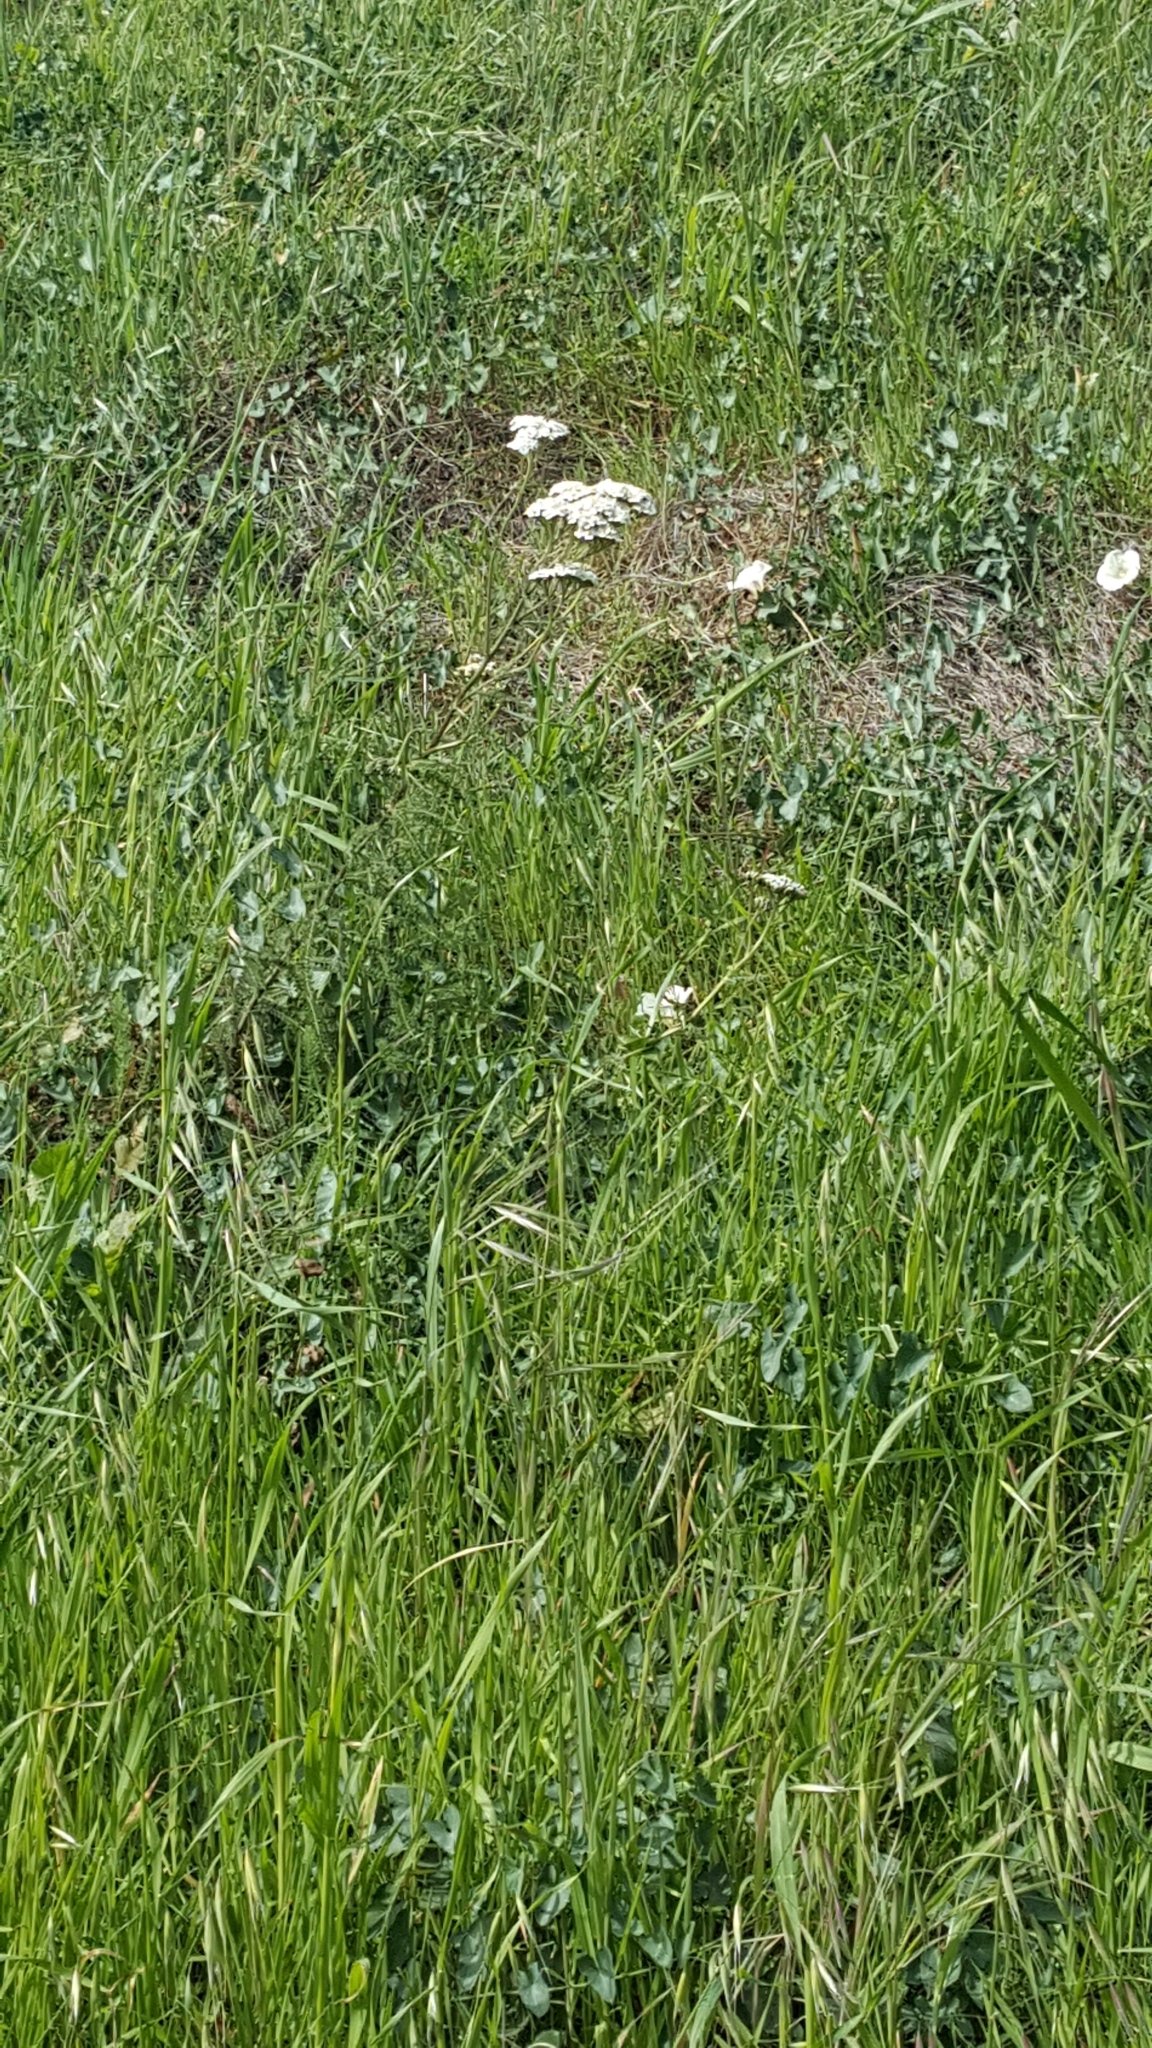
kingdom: Plantae
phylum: Tracheophyta
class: Magnoliopsida
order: Asterales
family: Asteraceae
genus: Achillea
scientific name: Achillea millefolium
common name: Yarrow
